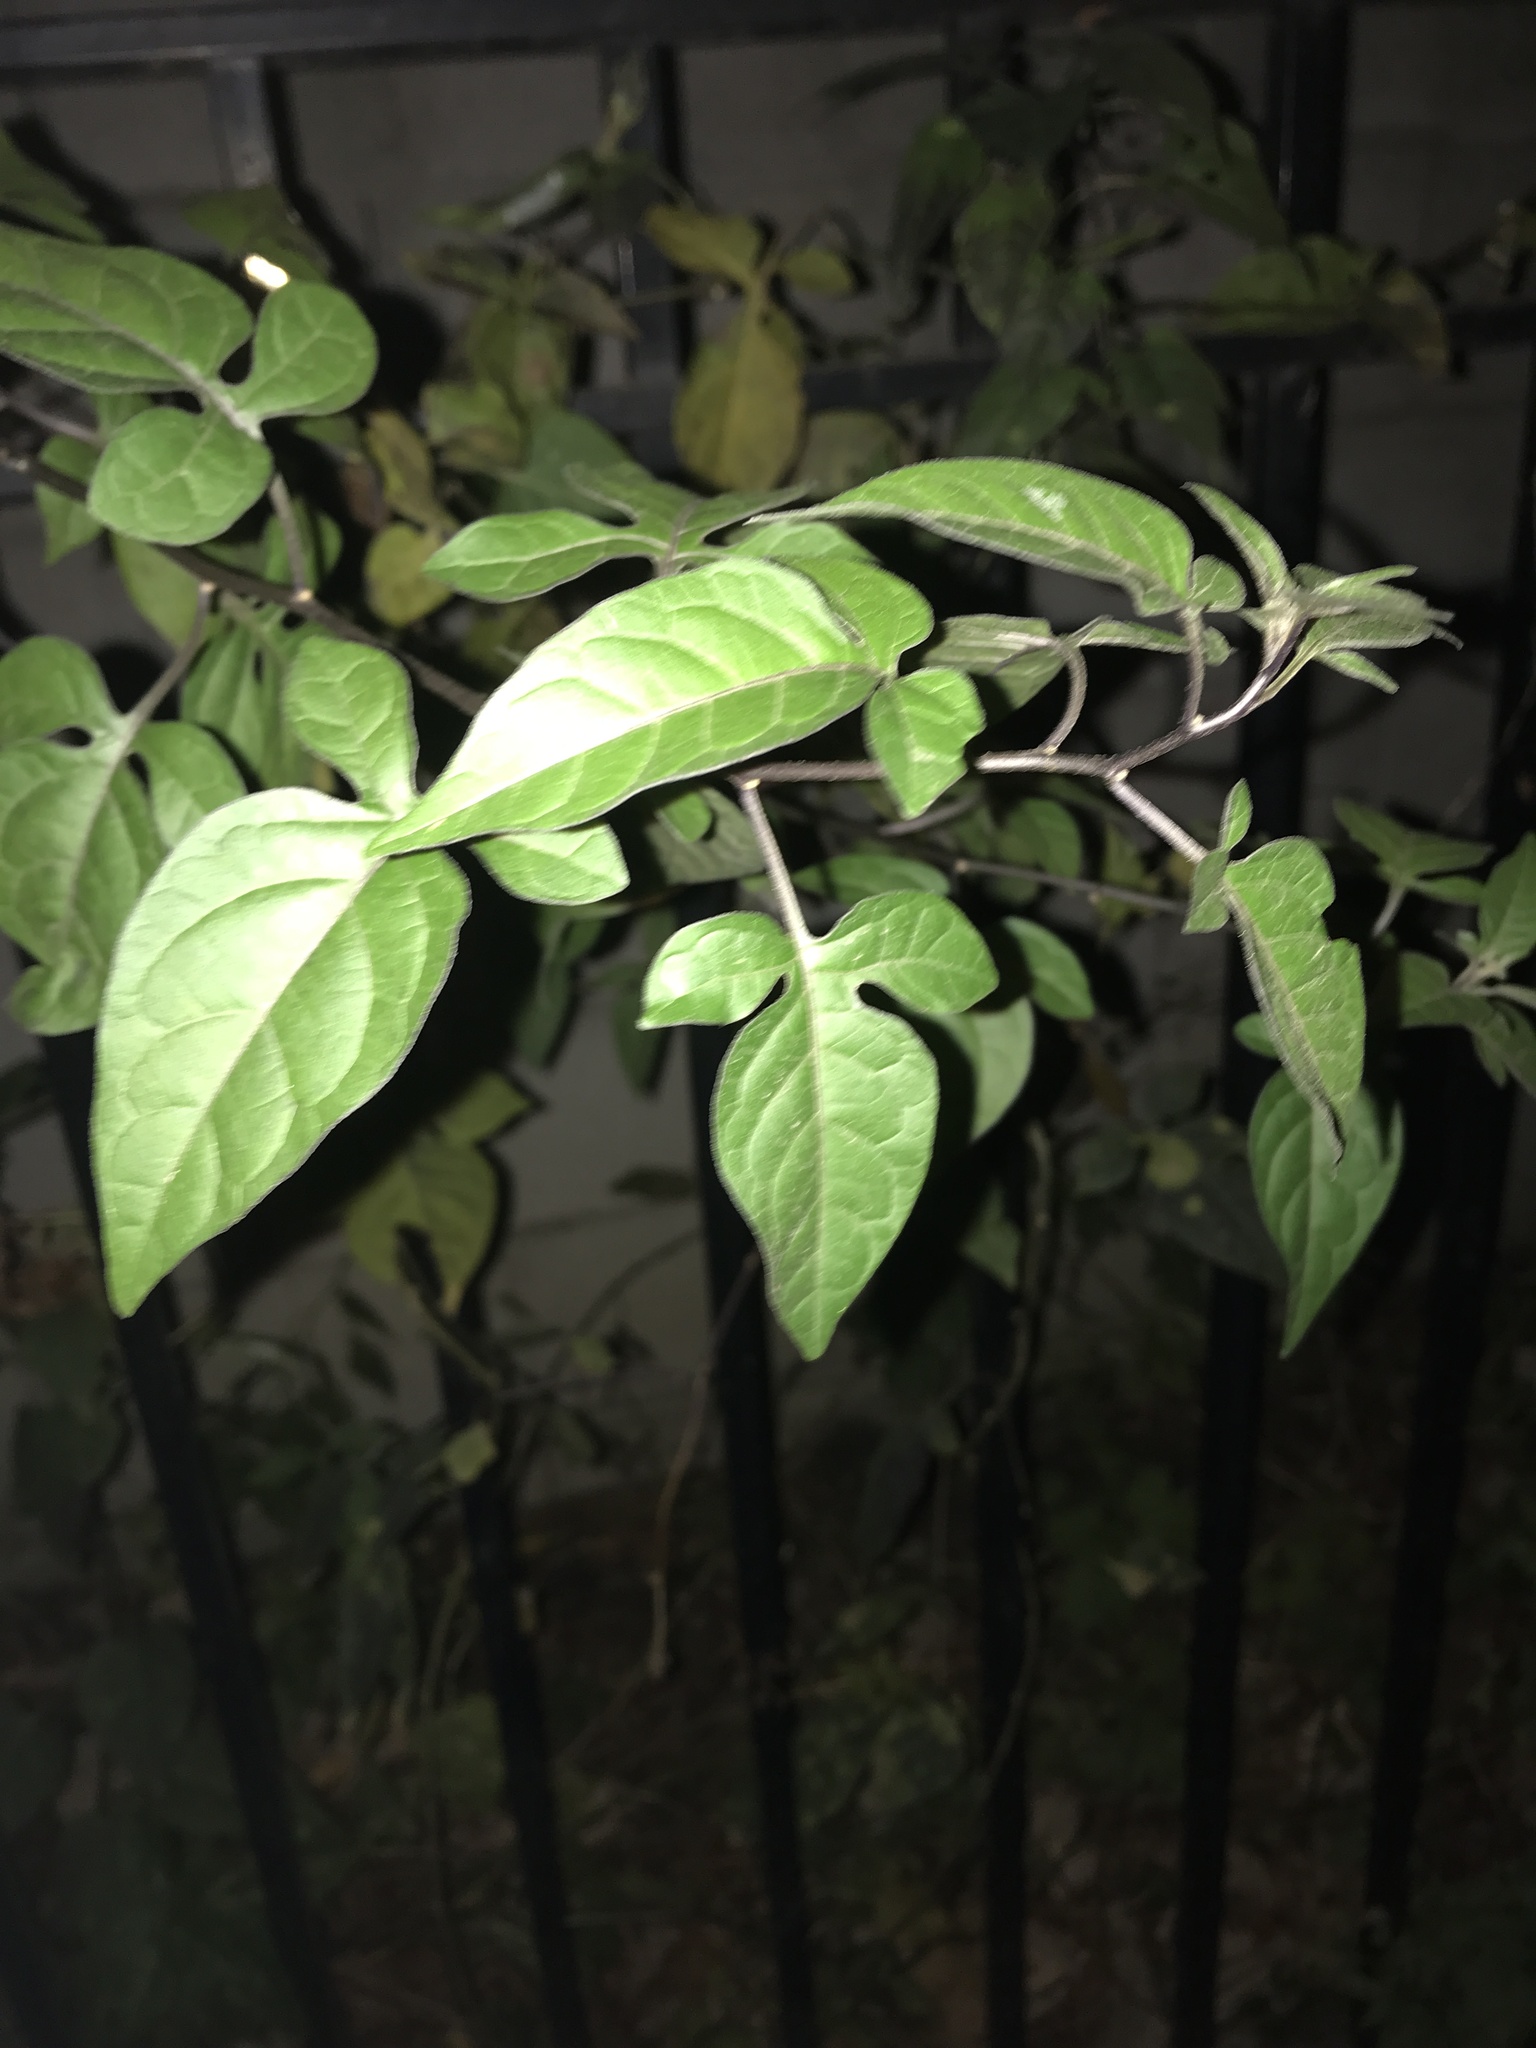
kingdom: Plantae
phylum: Tracheophyta
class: Magnoliopsida
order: Solanales
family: Solanaceae
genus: Solanum
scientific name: Solanum dulcamara
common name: Climbing nightshade
